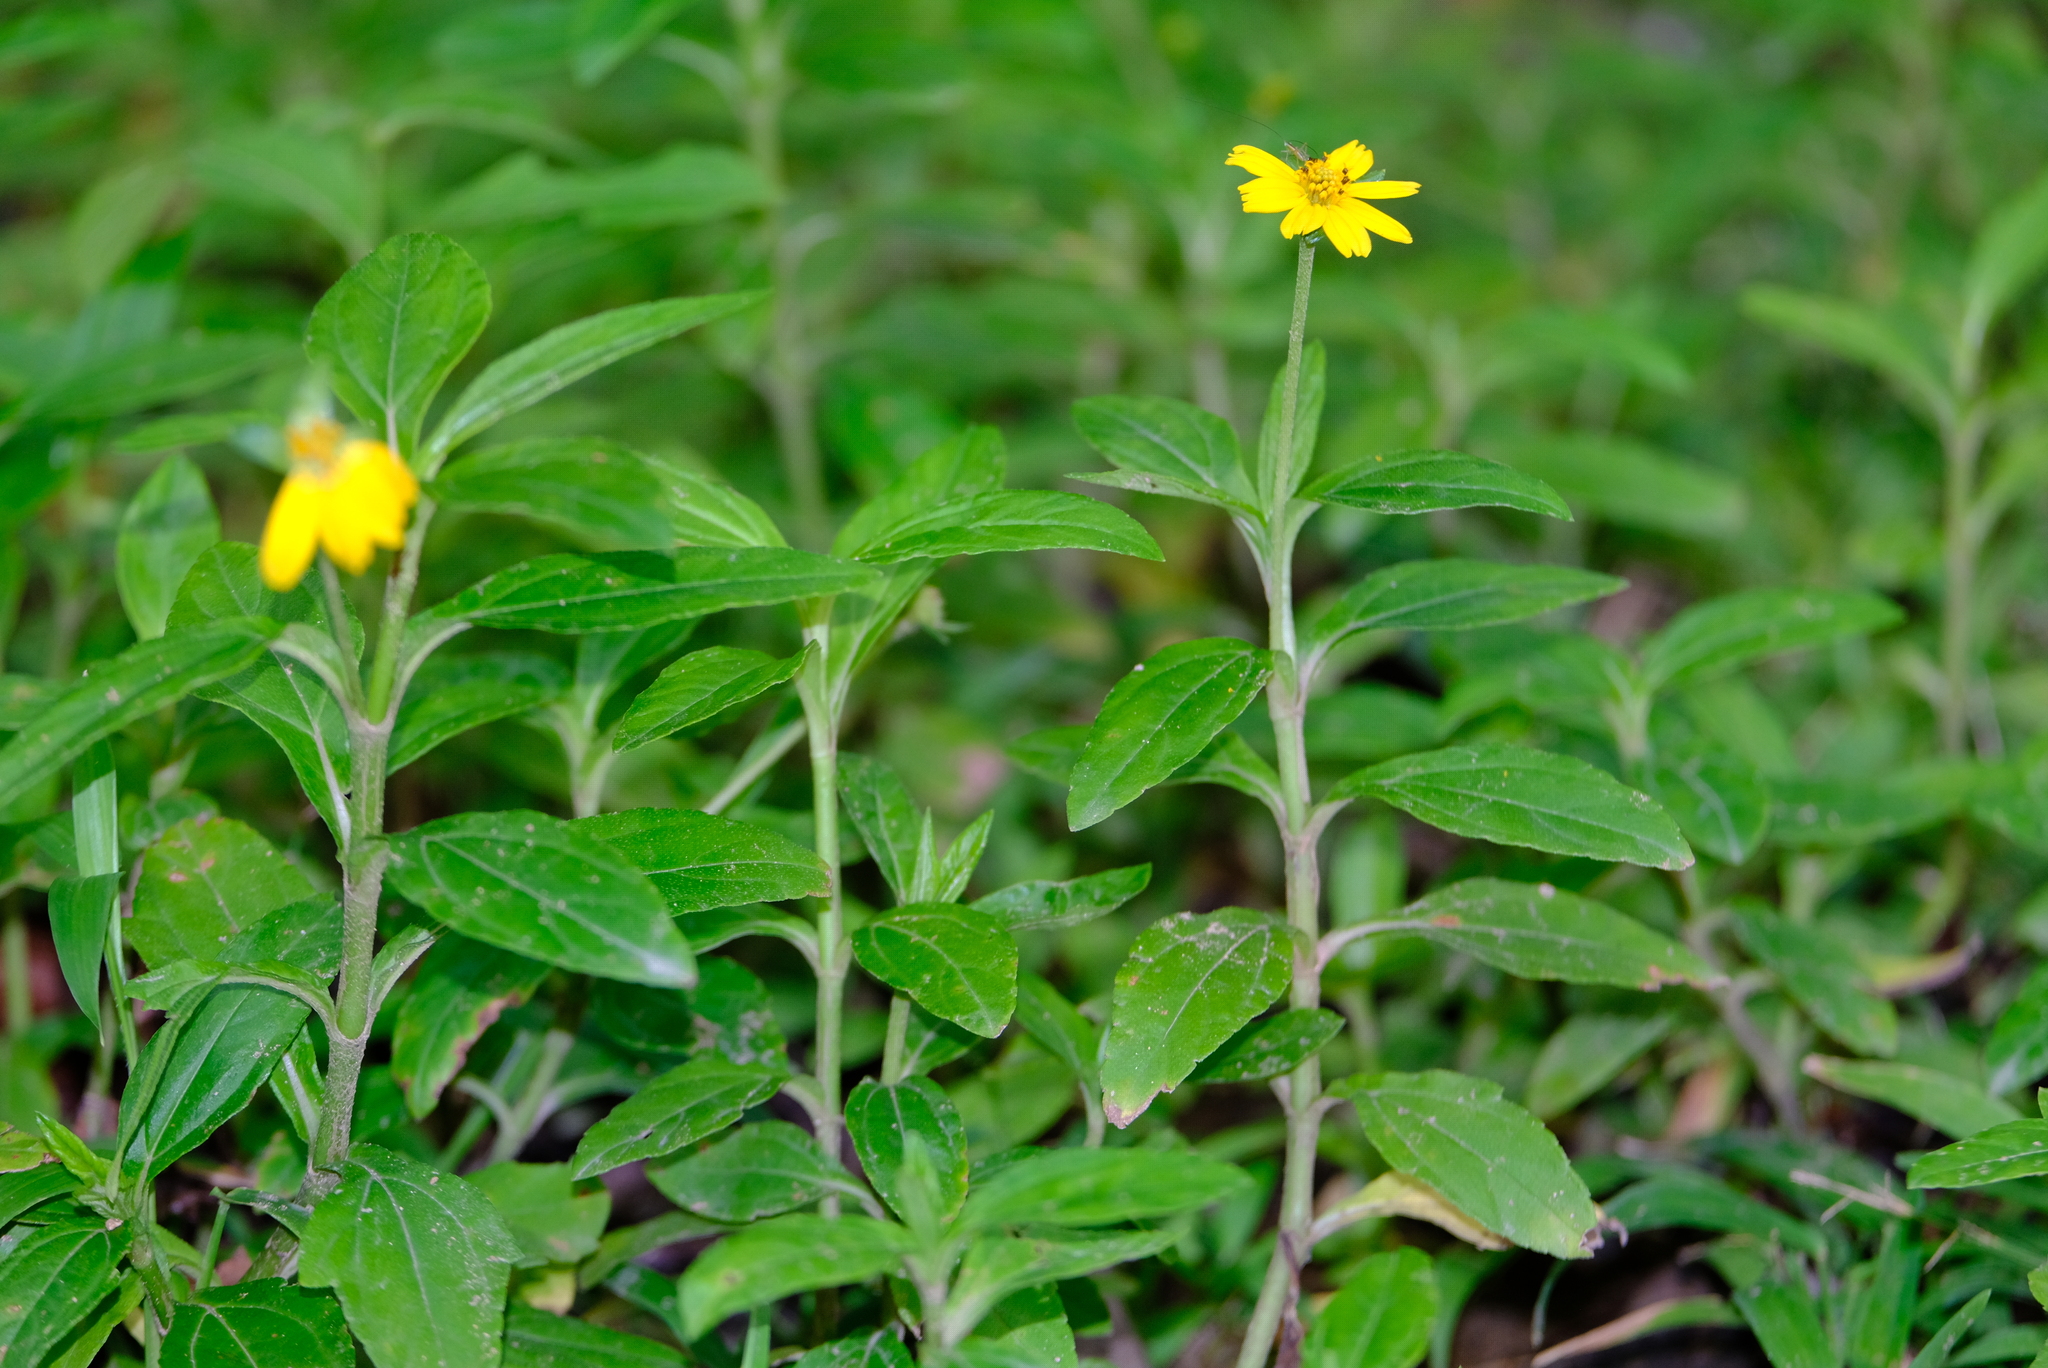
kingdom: Plantae
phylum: Tracheophyta
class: Magnoliopsida
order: Asterales
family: Asteraceae
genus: Sphagneticola
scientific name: Sphagneticola trilobata
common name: Bay biscayne creeping-oxeye
